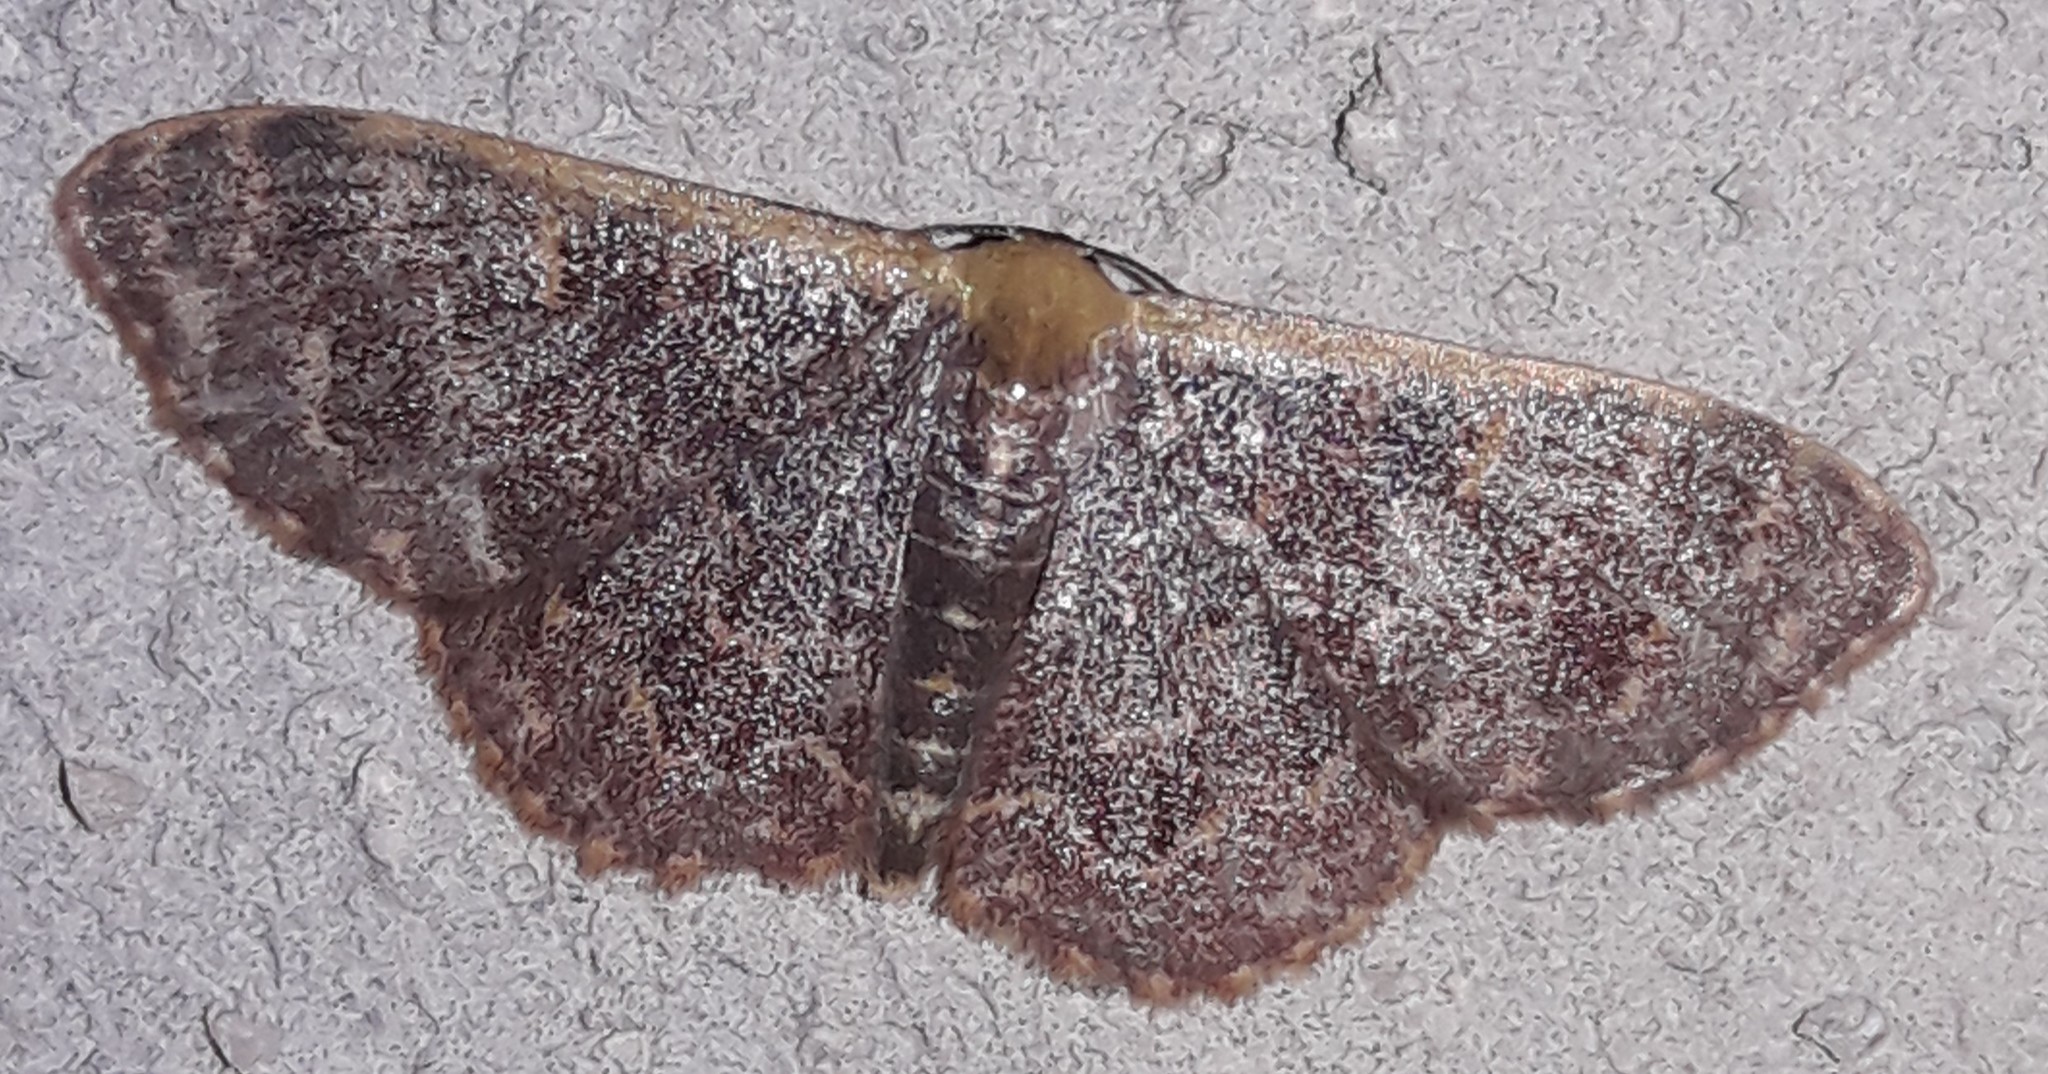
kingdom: Animalia
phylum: Arthropoda
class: Insecta
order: Lepidoptera
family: Geometridae
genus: Leptostales
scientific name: Leptostales crossii
